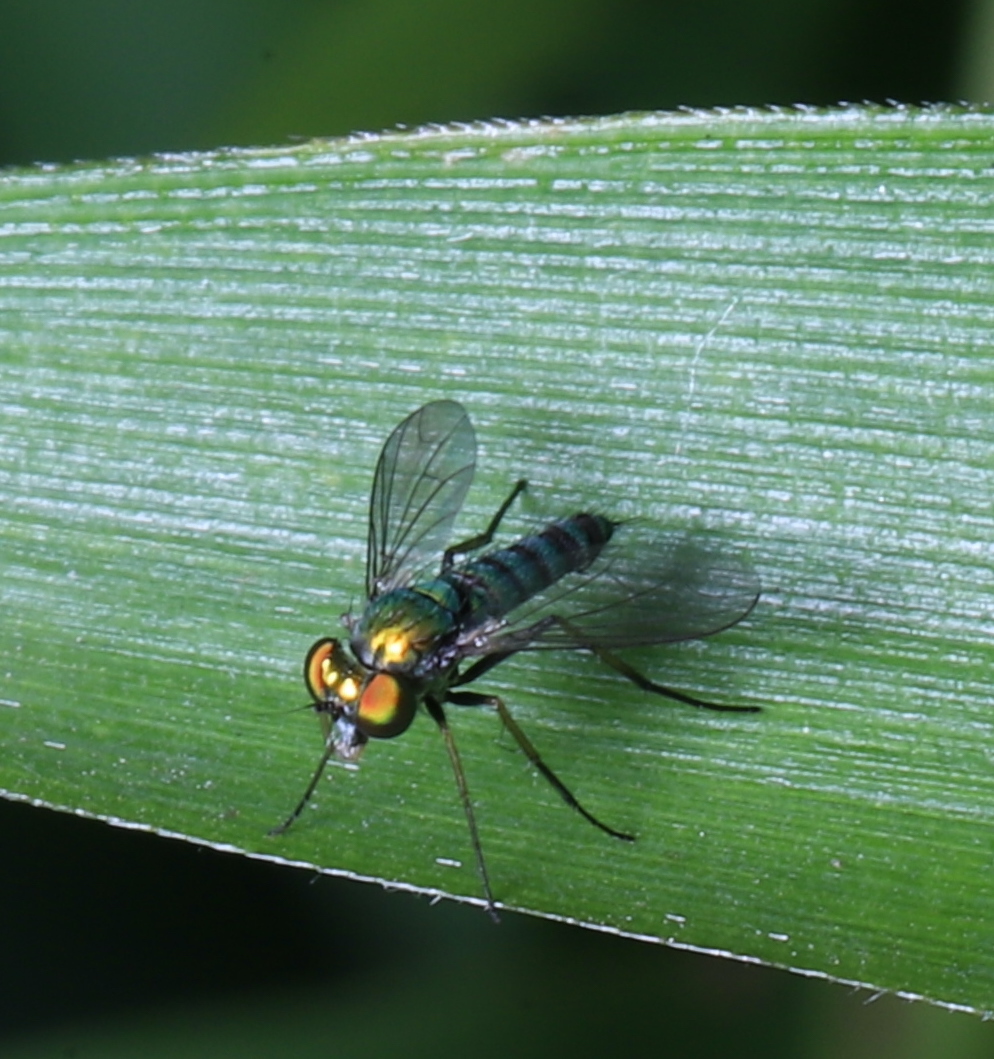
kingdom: Animalia
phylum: Arthropoda
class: Insecta
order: Diptera
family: Dolichopodidae
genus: Condylostylus
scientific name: Condylostylus caudatus
